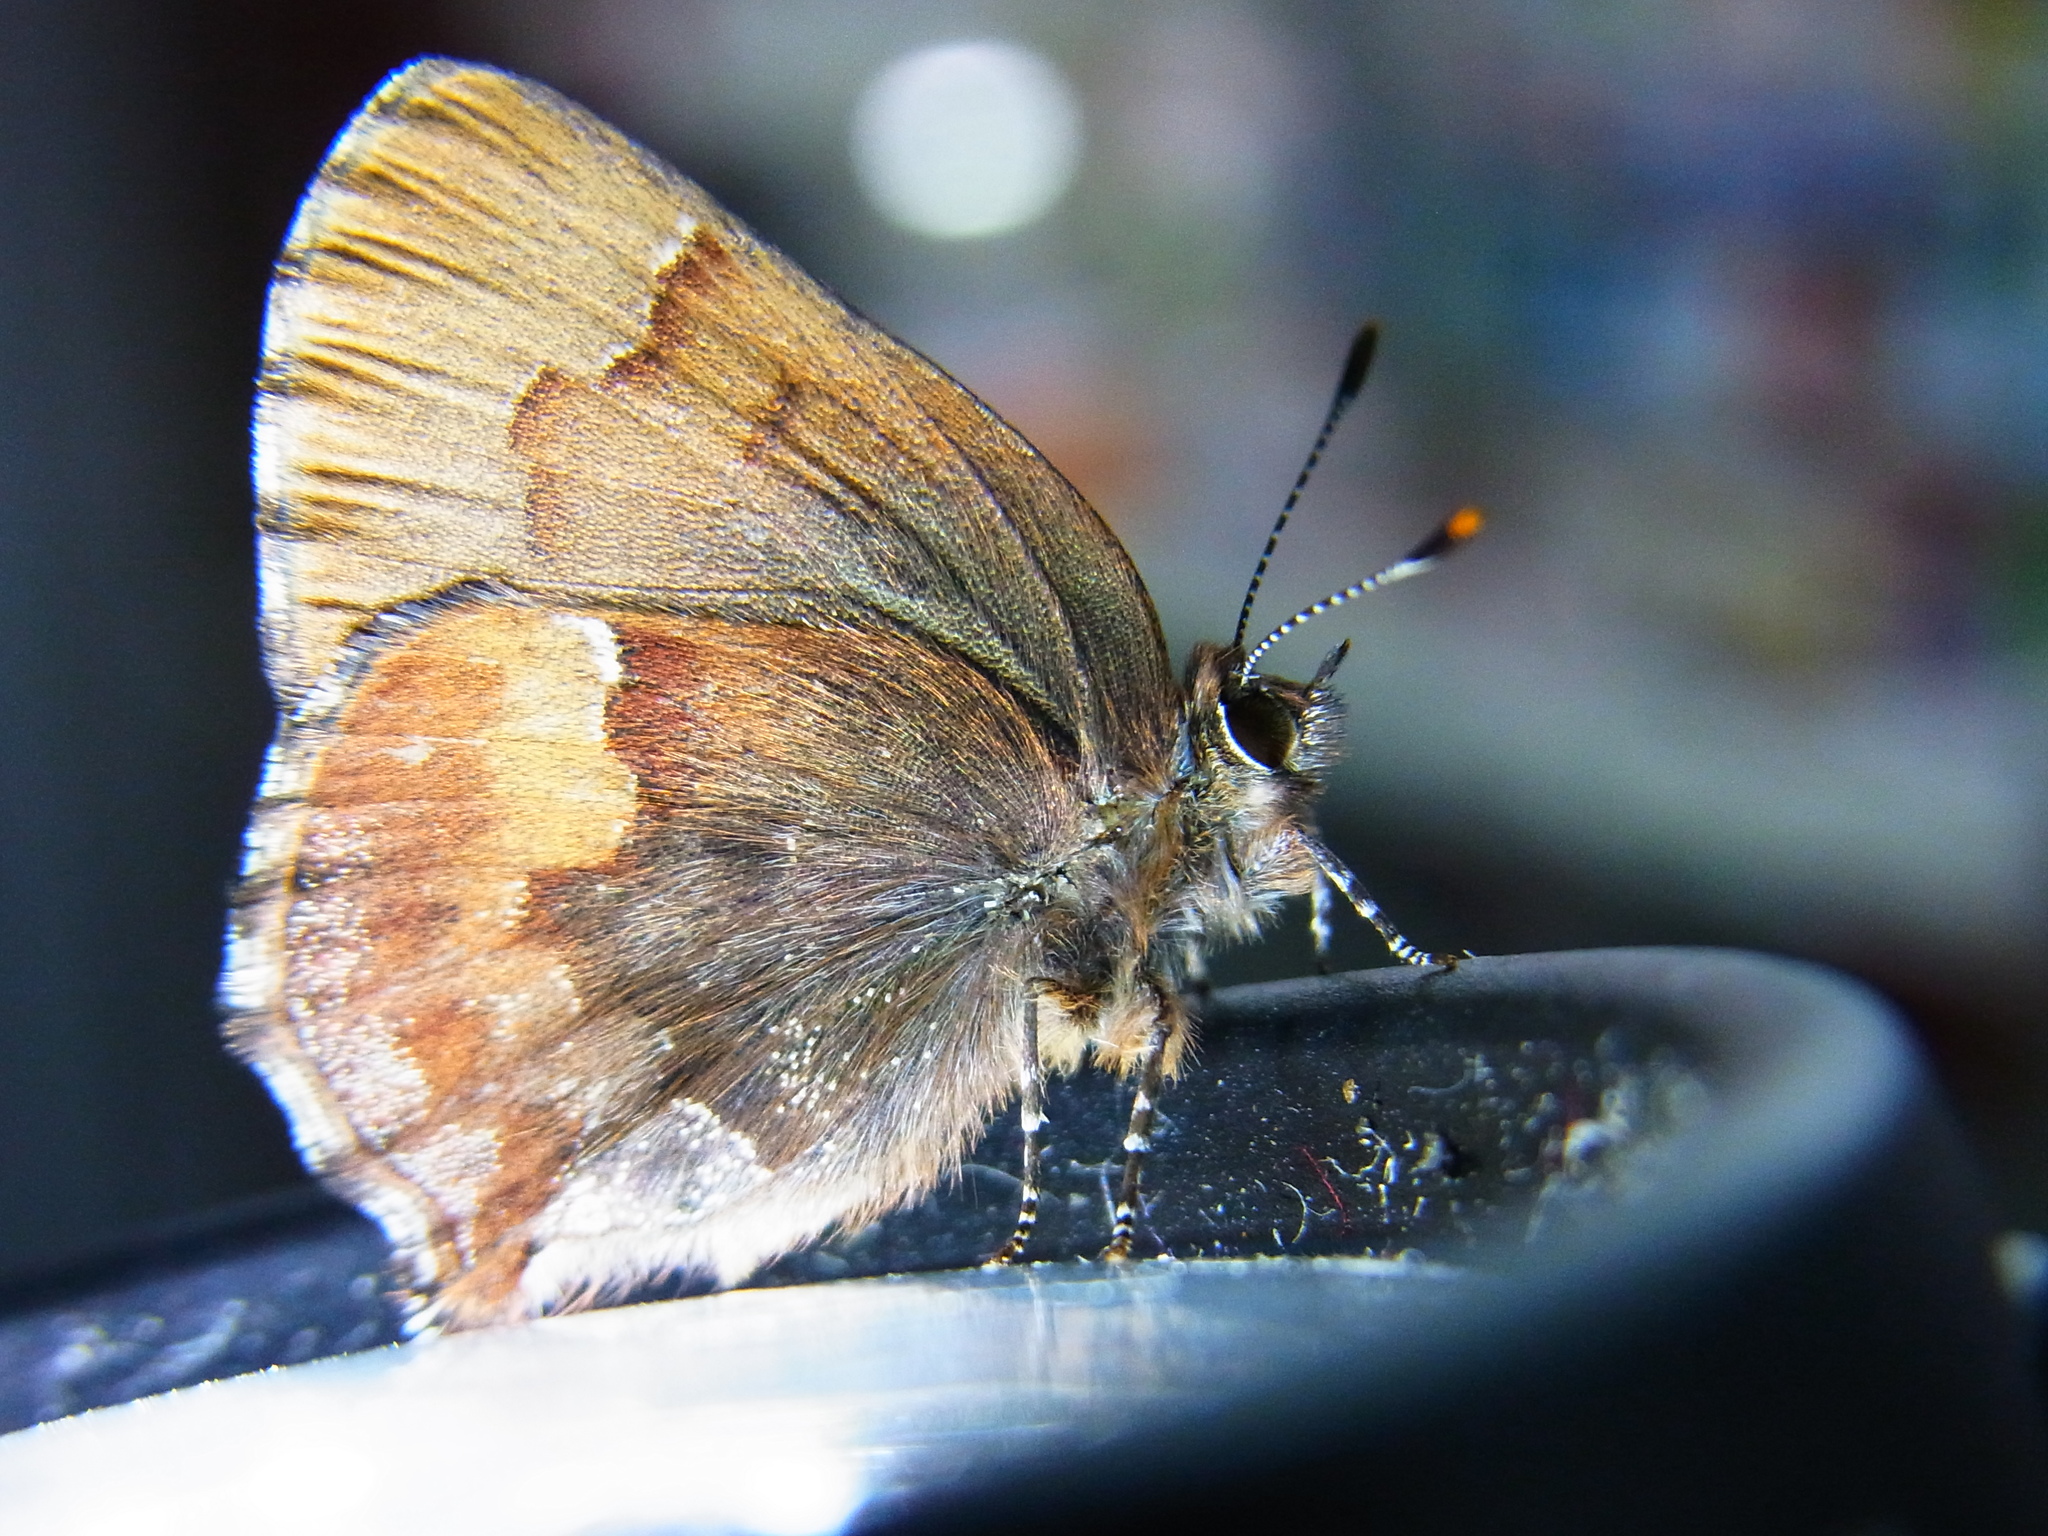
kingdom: Animalia
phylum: Arthropoda
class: Insecta
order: Lepidoptera
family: Lycaenidae
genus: Ginzia
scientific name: Ginzia frivaldsky
